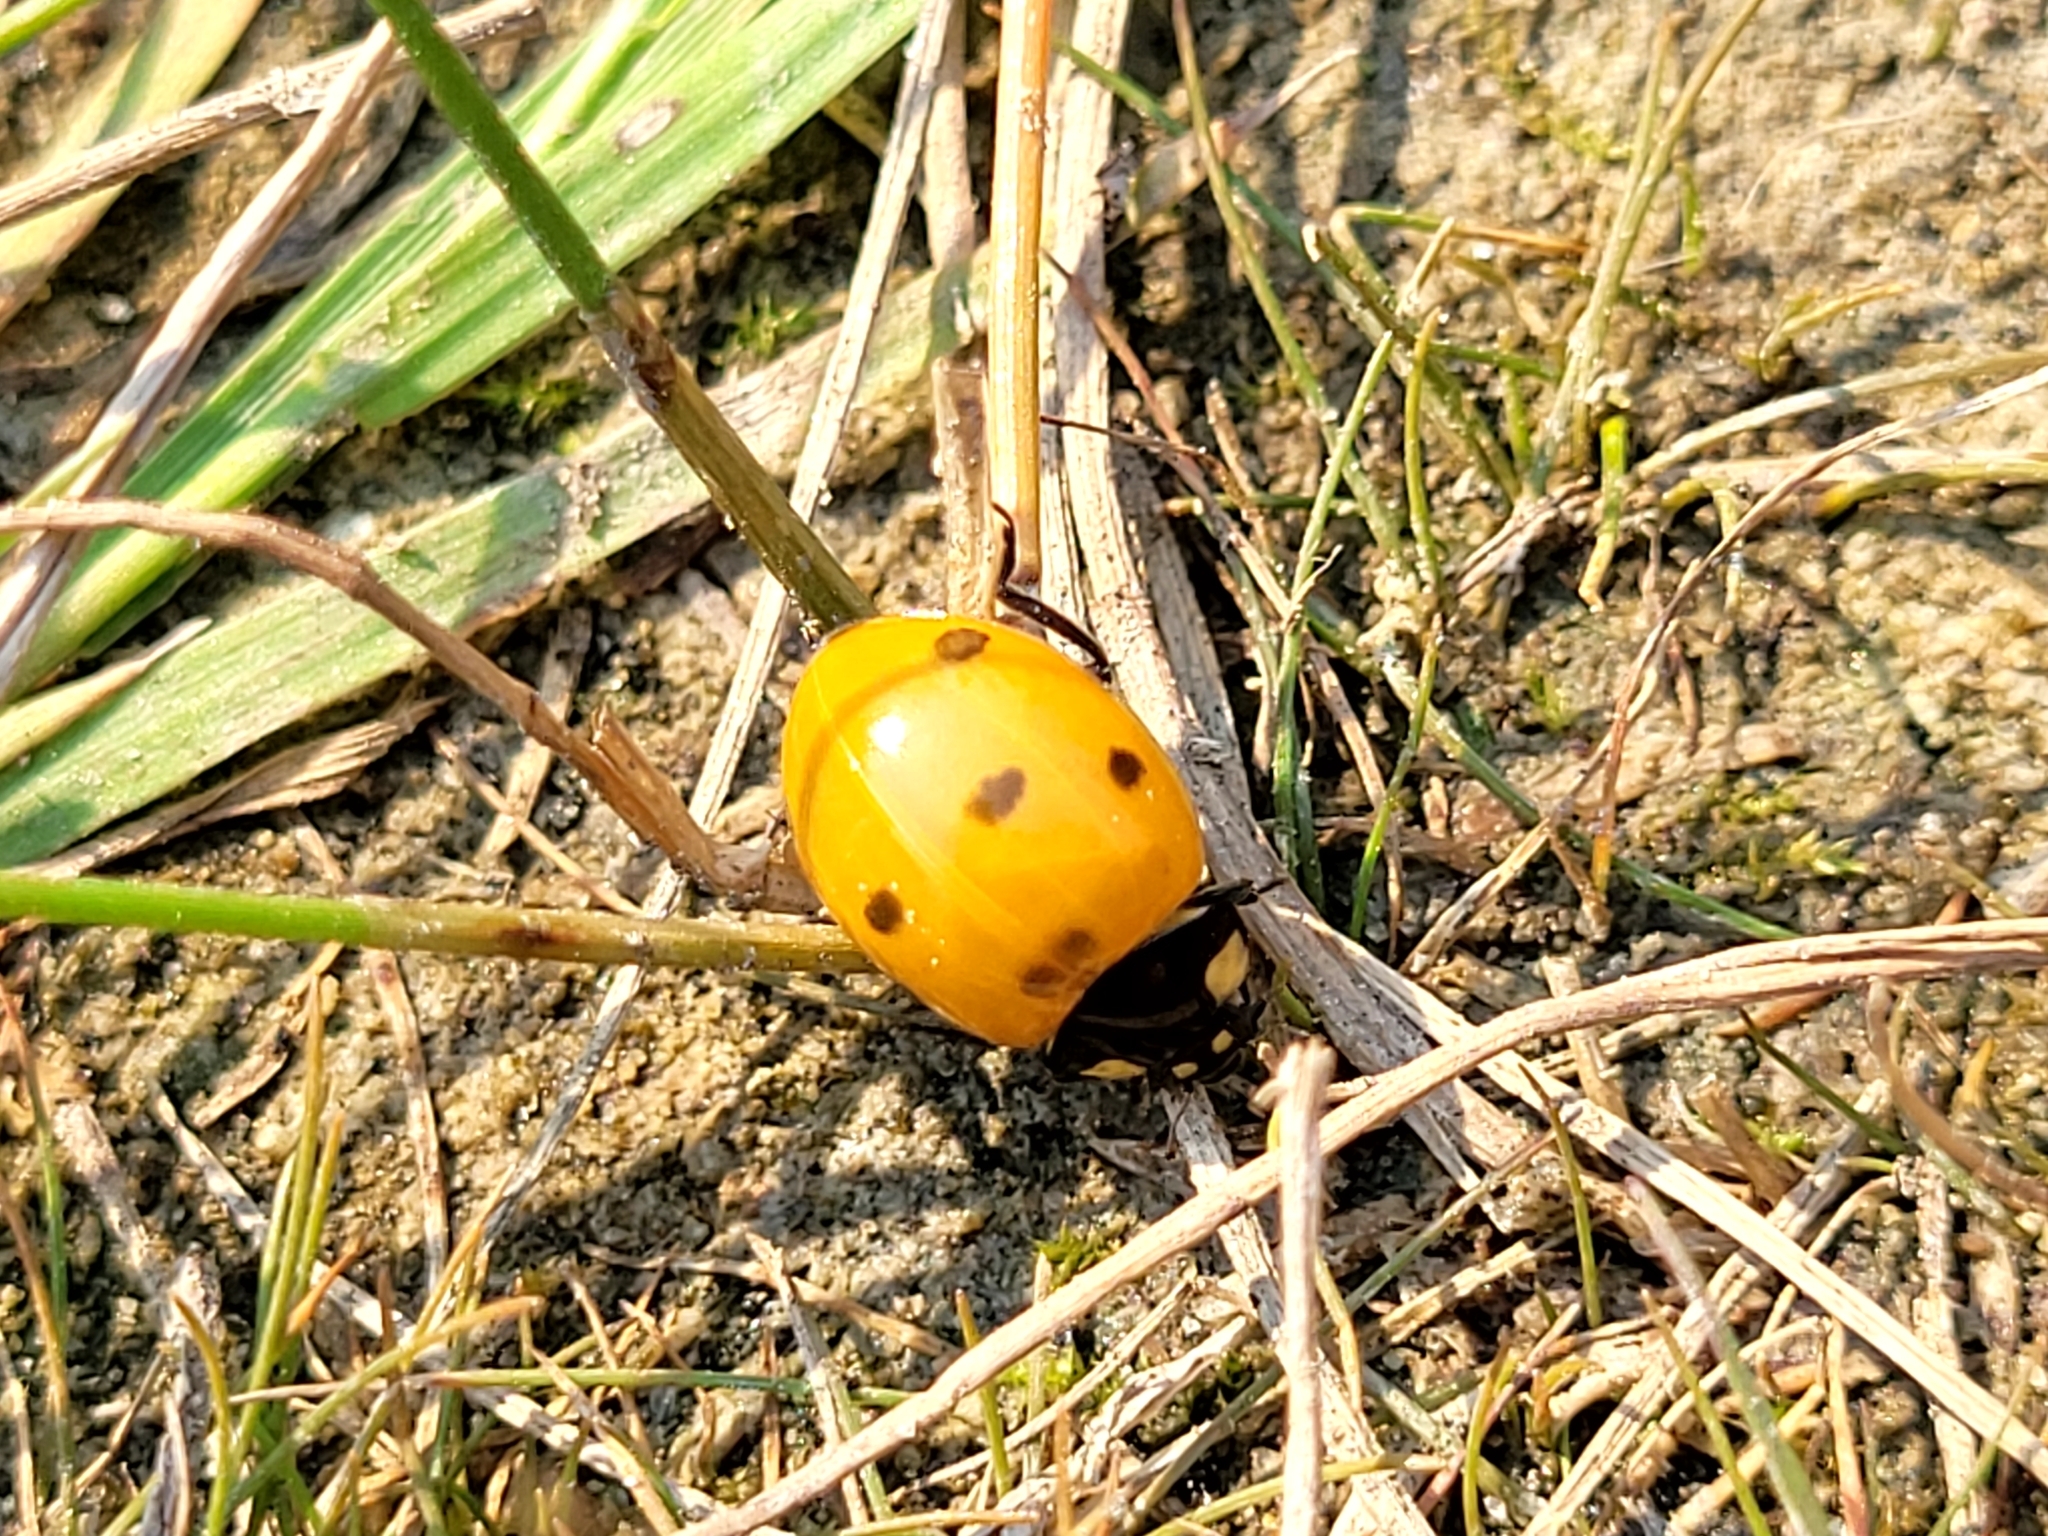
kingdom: Animalia
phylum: Arthropoda
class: Insecta
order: Coleoptera
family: Coccinellidae
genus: Coccinella
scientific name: Coccinella septempunctata
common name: Sevenspotted lady beetle
